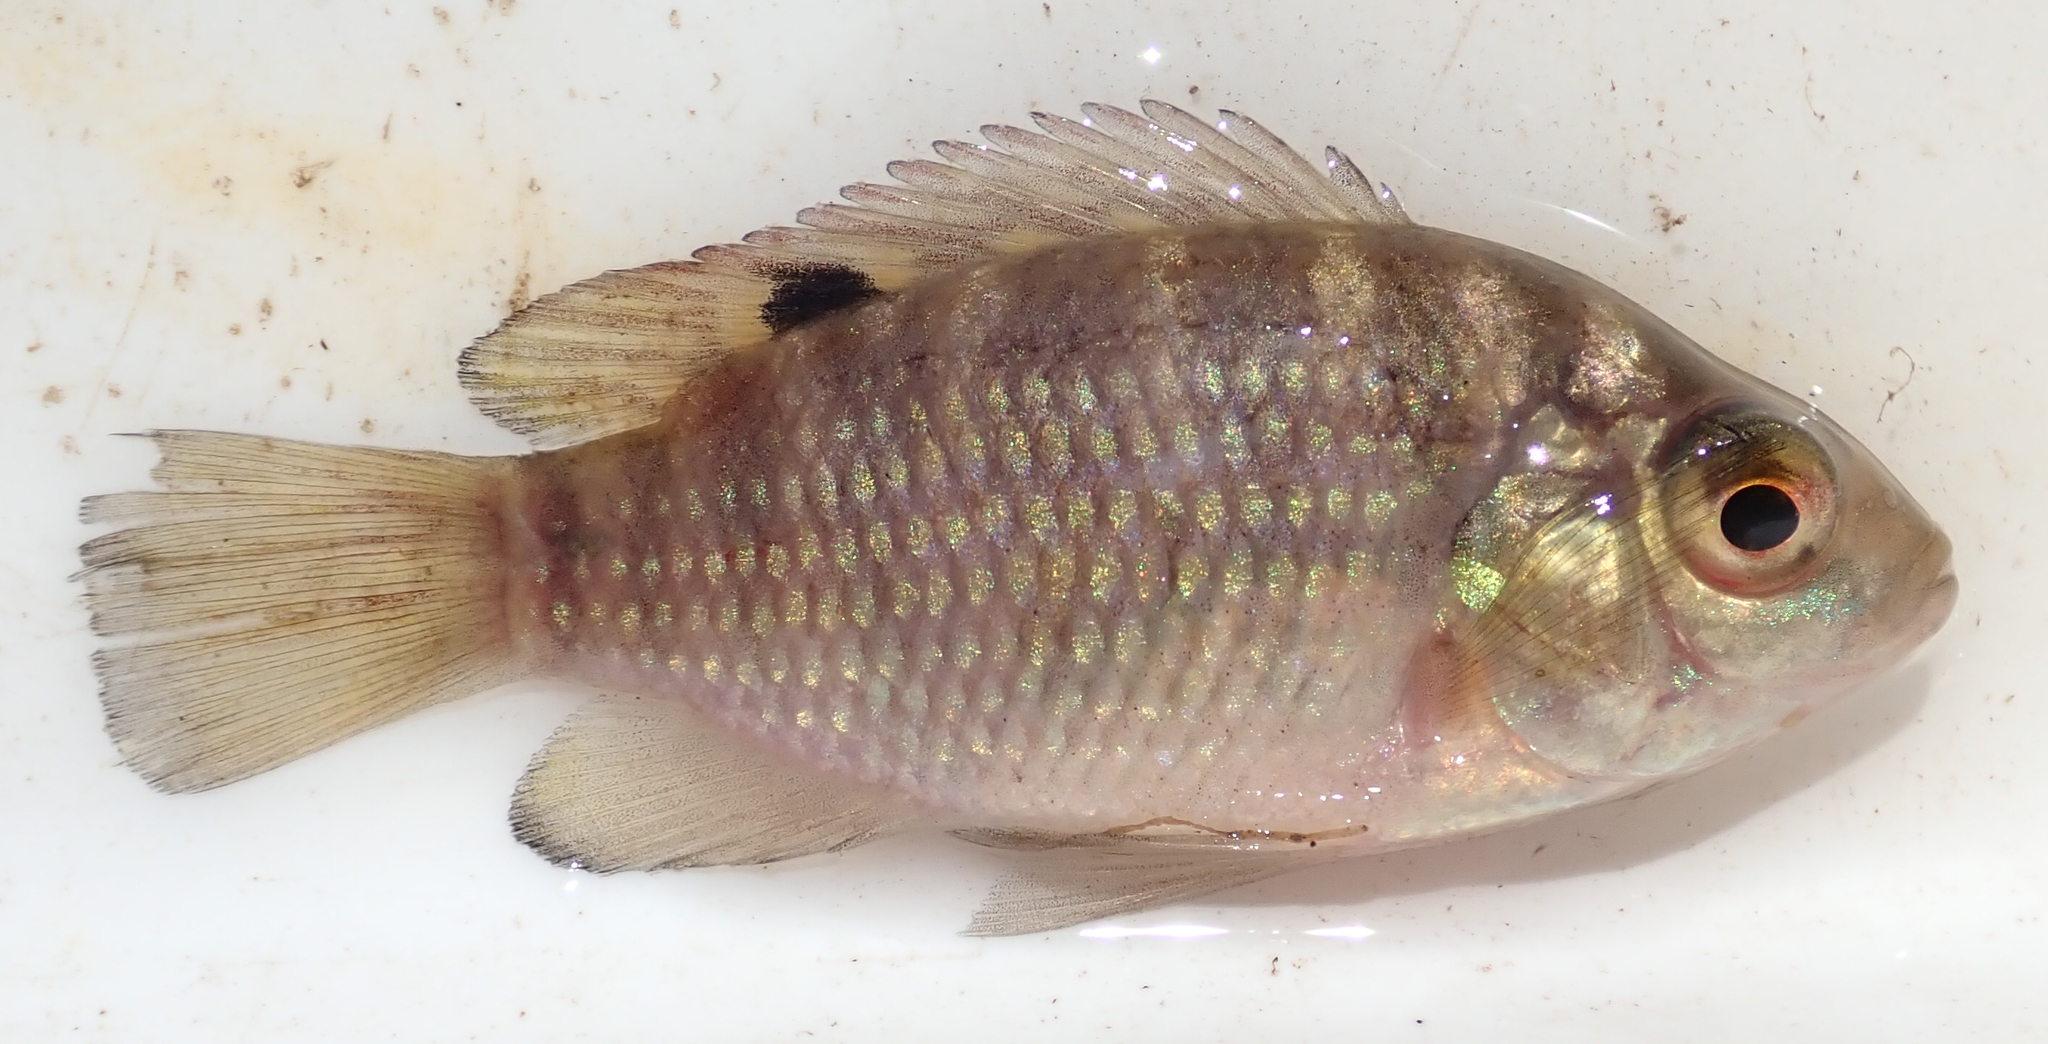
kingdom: Animalia
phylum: Chordata
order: Perciformes
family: Cichlidae
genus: Tilapia
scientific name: Tilapia sparrmanii
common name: Banded tilapia
